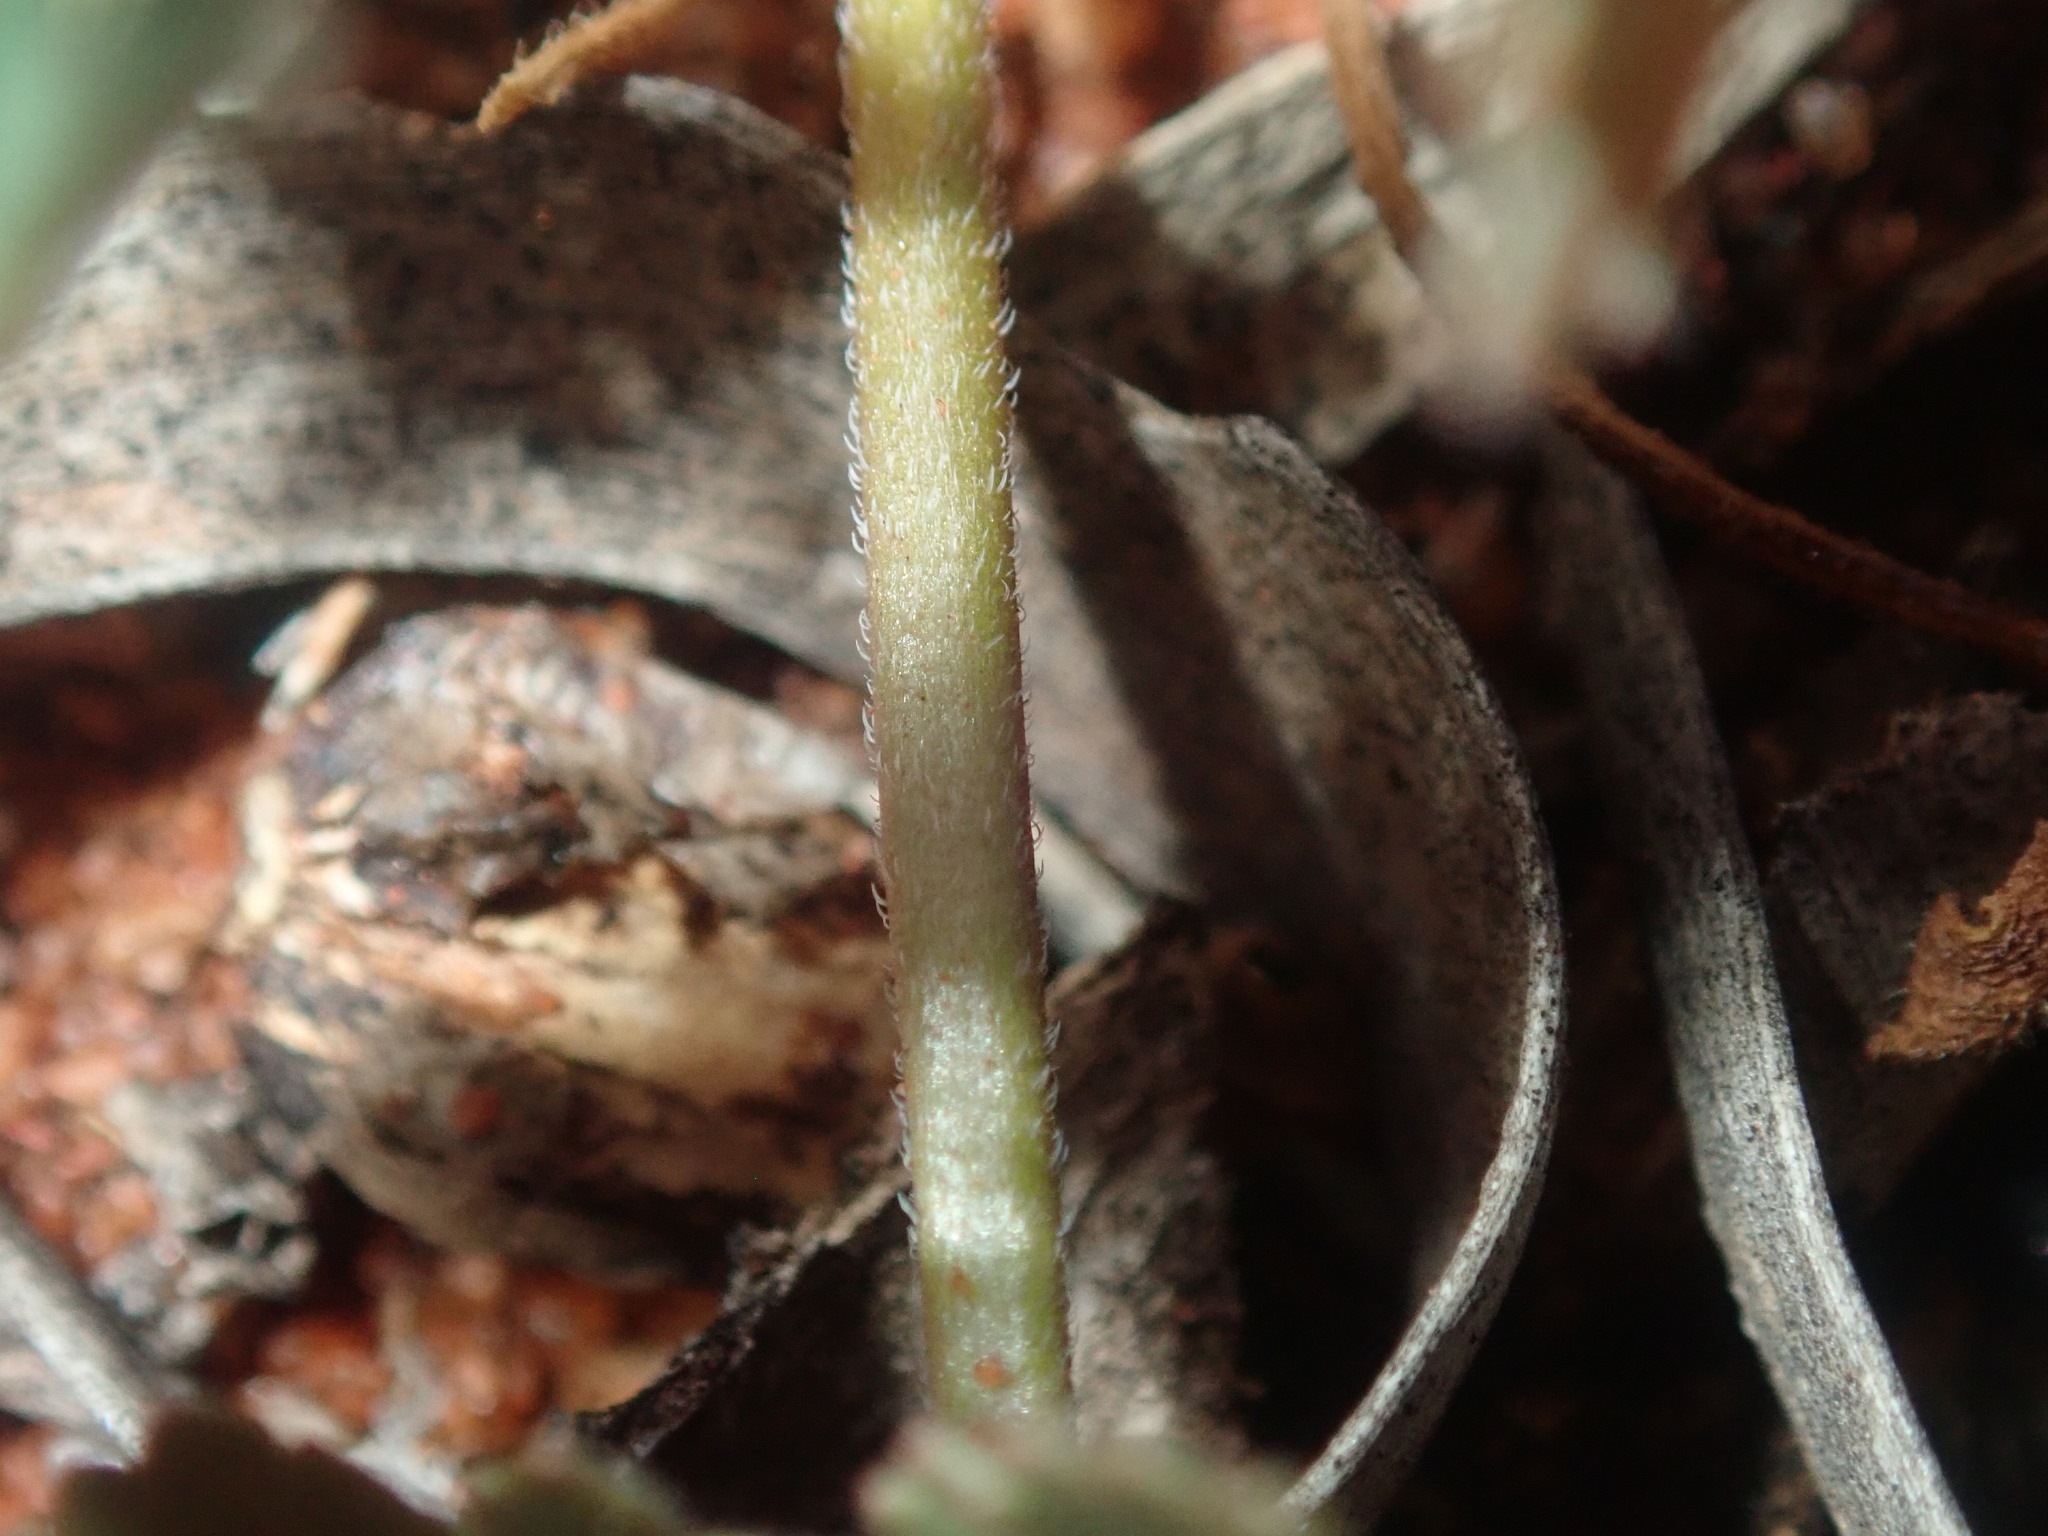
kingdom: Plantae
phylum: Tracheophyta
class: Magnoliopsida
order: Geraniales
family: Geraniaceae
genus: Erodium
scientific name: Erodium cygnorum
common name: Western stork's-bill
